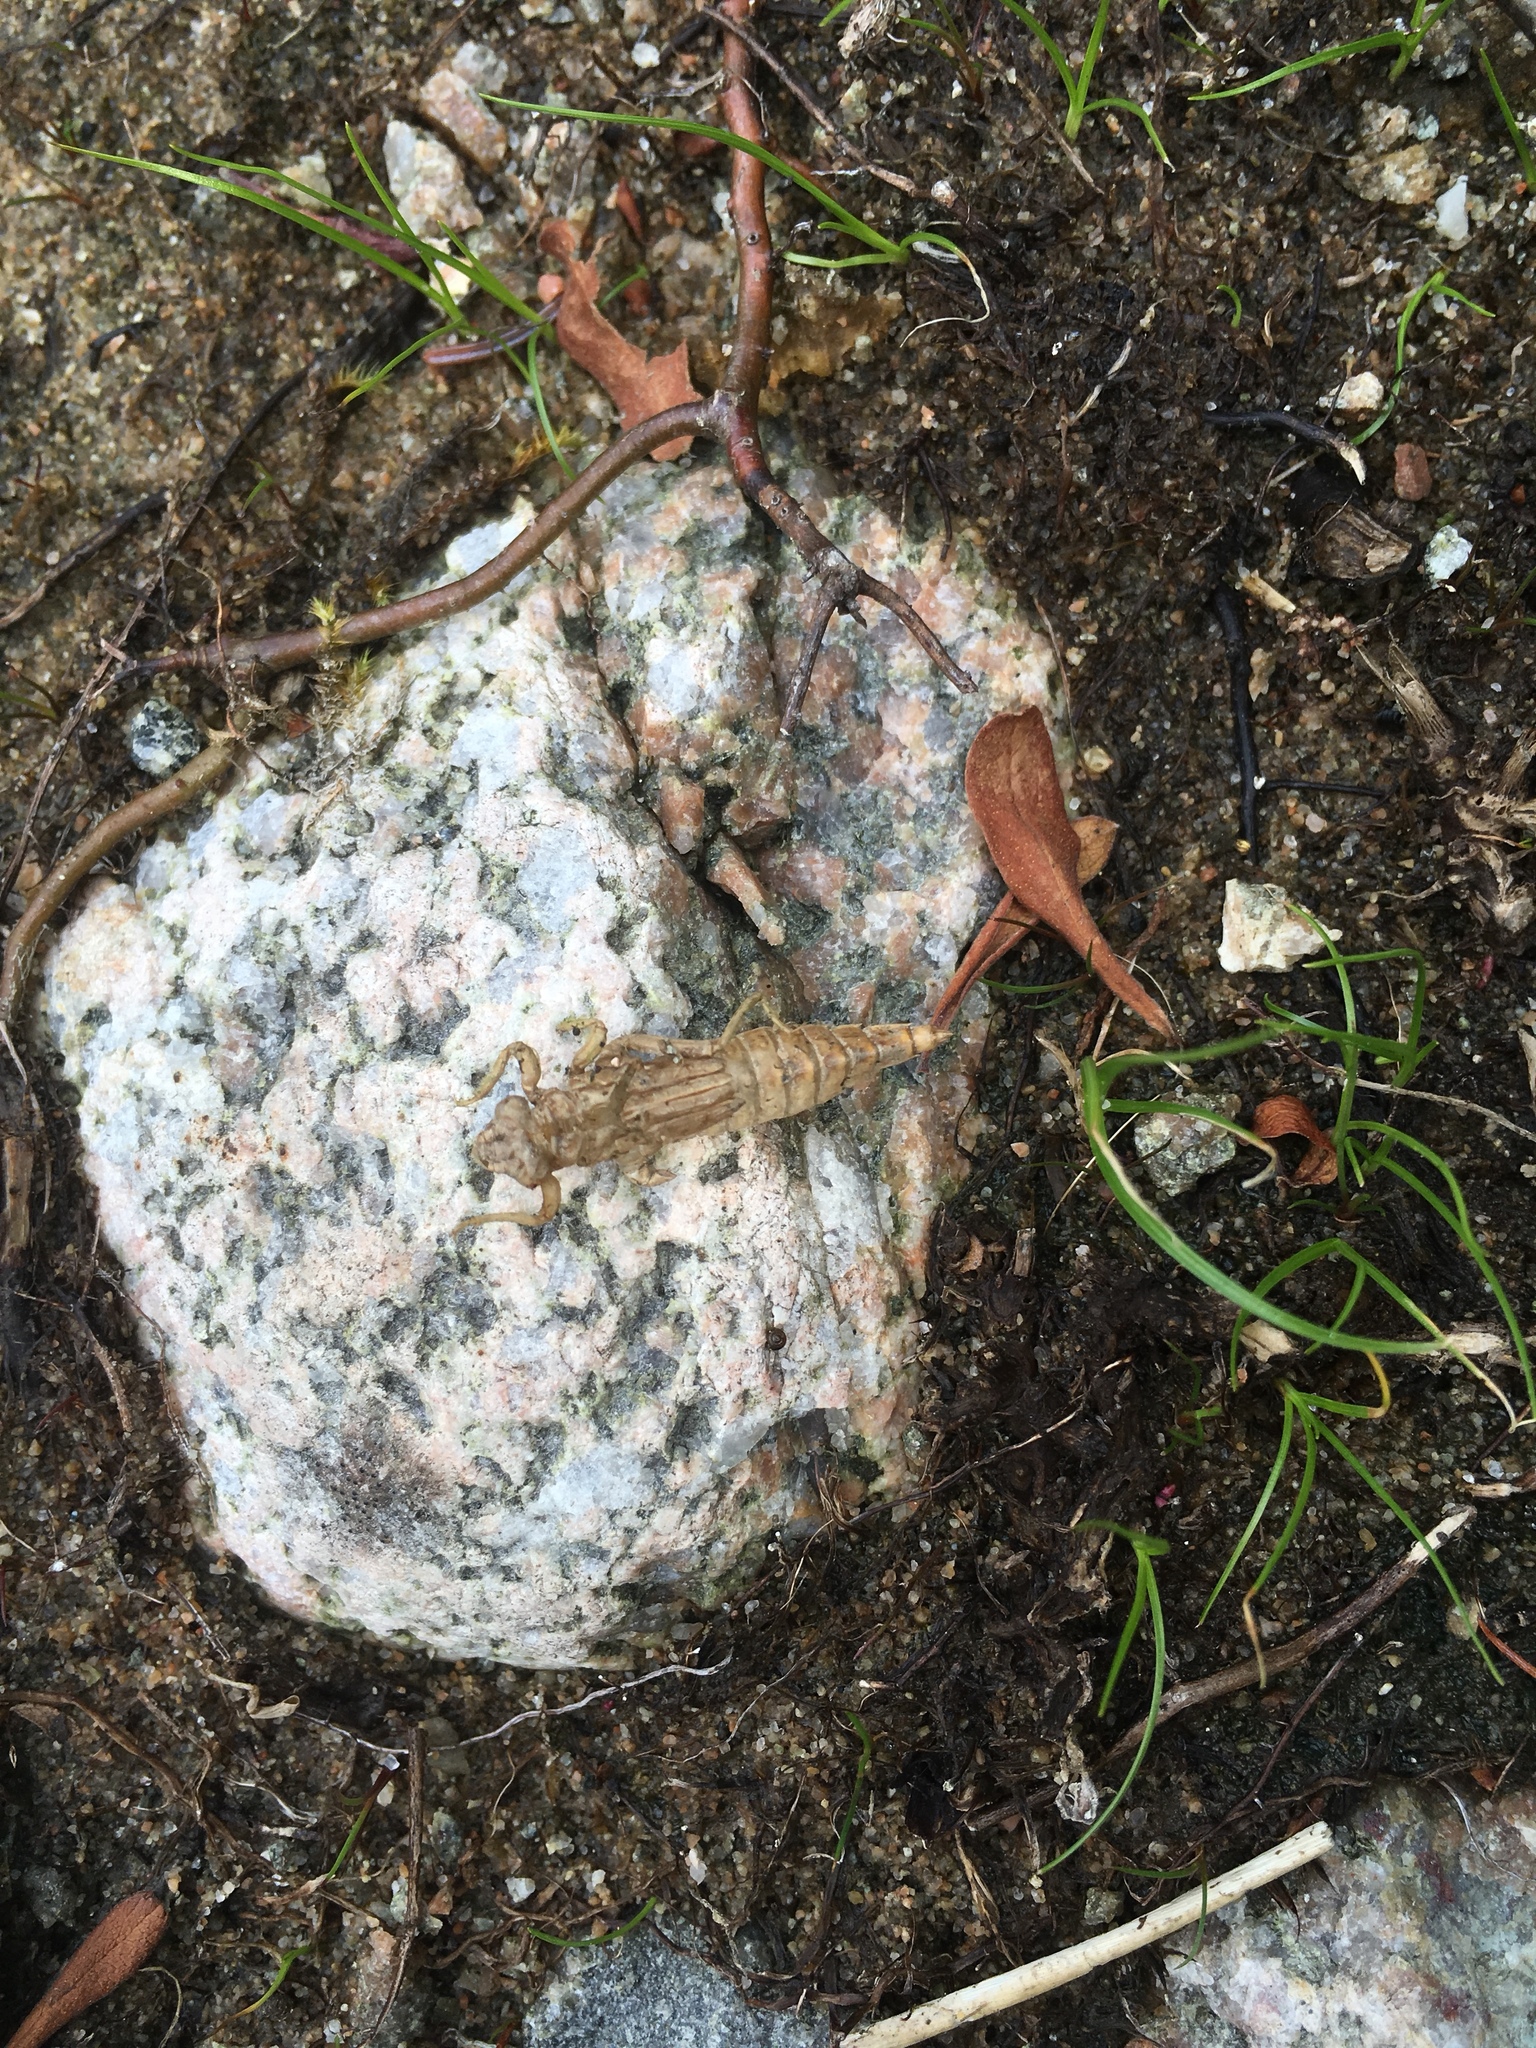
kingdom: Animalia
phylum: Arthropoda
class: Insecta
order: Odonata
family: Gomphidae
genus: Dromogomphus
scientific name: Dromogomphus spinosus
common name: Black-shouldered spinyleg
